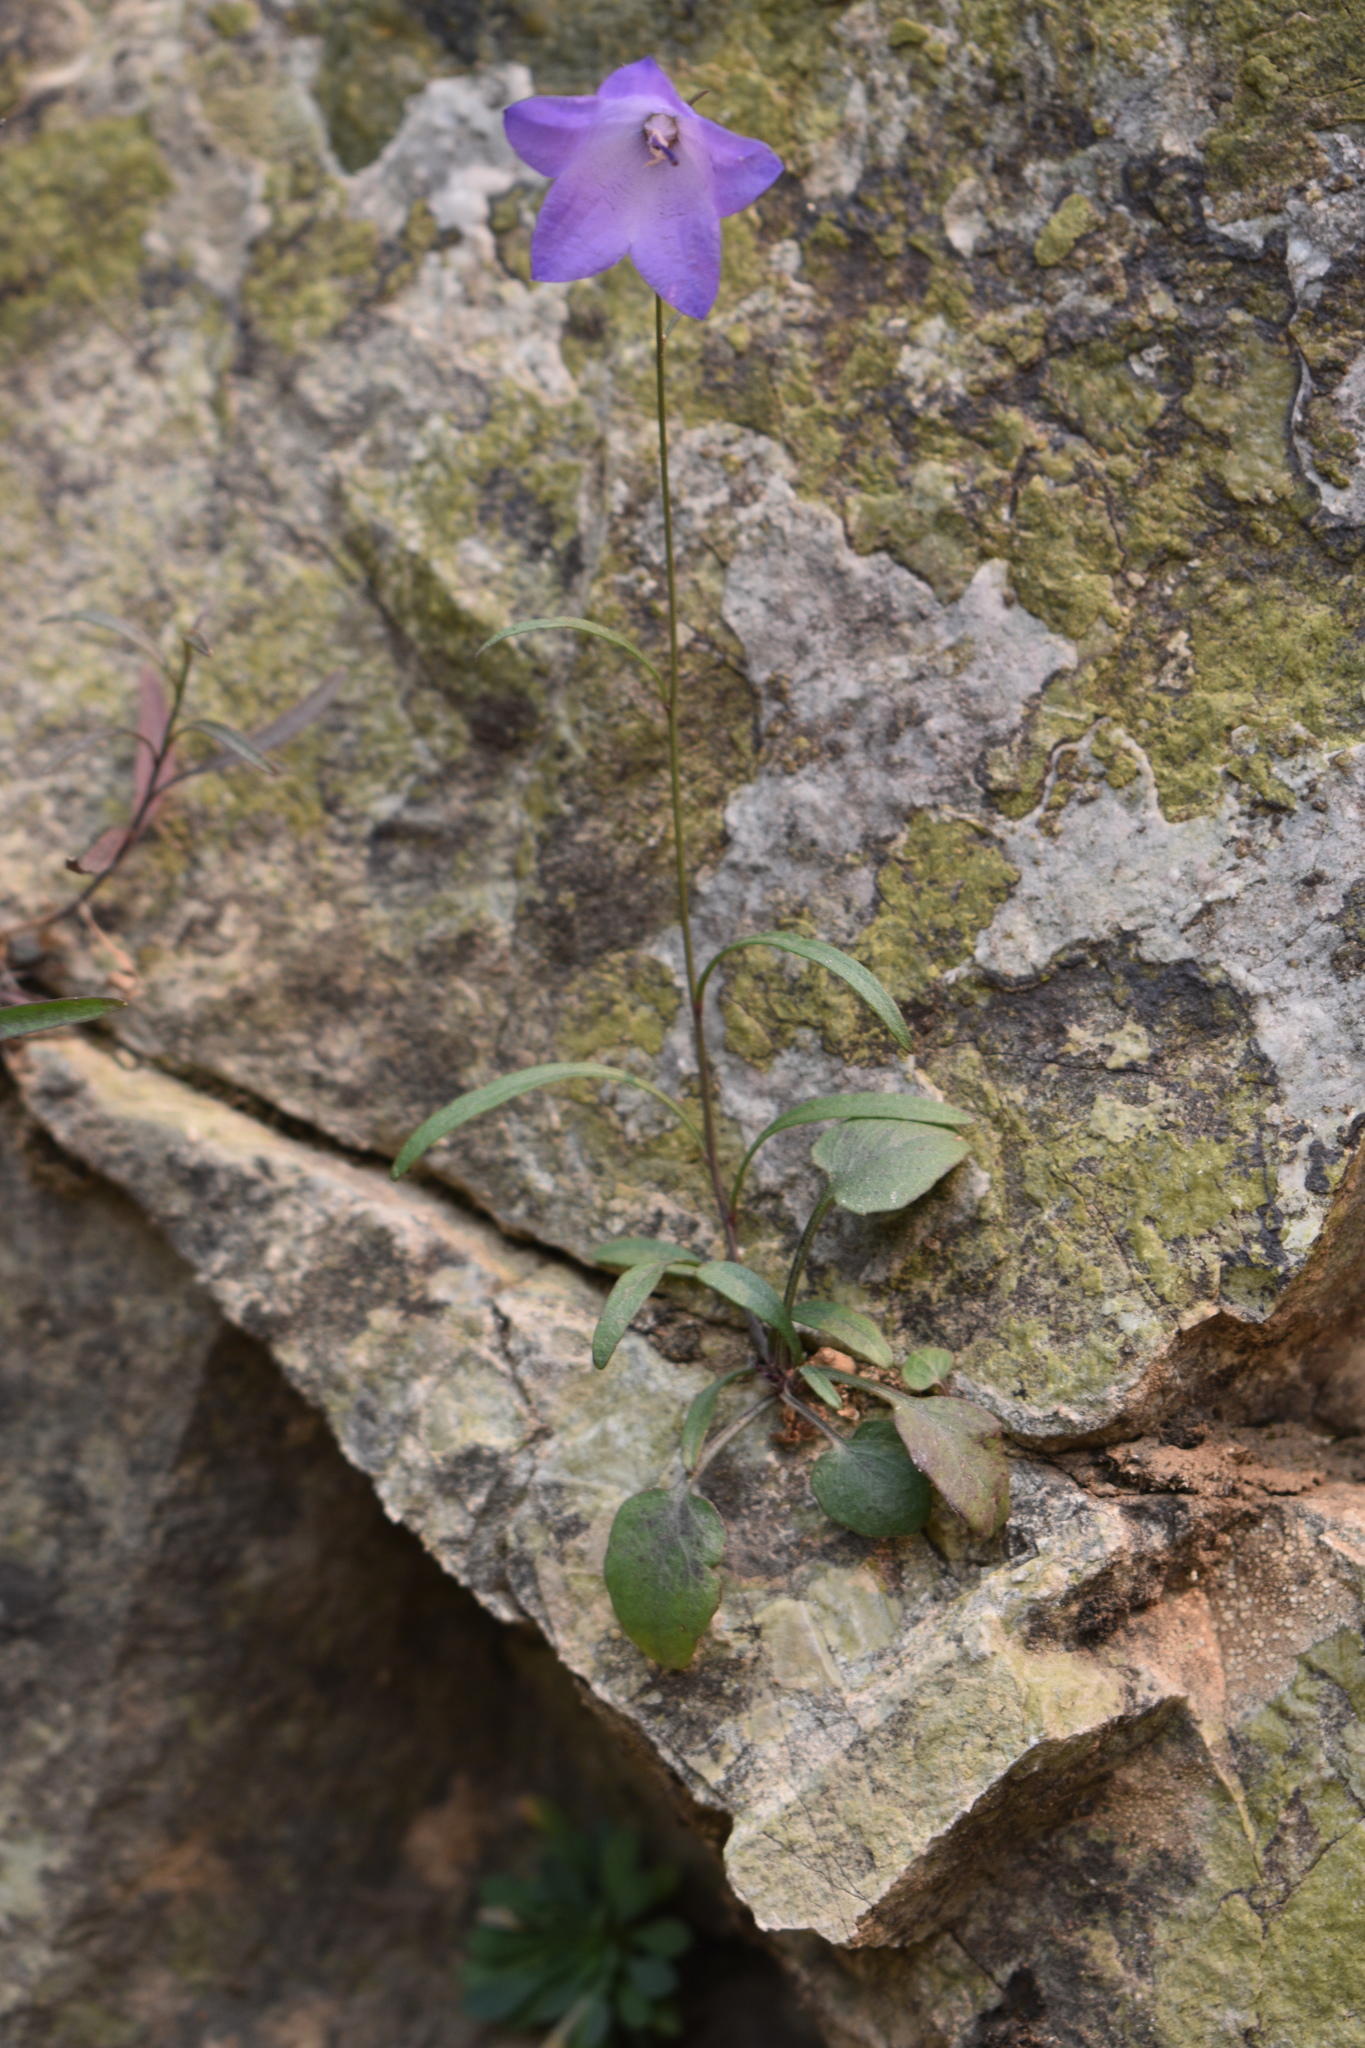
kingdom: Plantae
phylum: Tracheophyta
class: Magnoliopsida
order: Asterales
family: Campanulaceae
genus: Campanula
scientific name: Campanula petiolata
